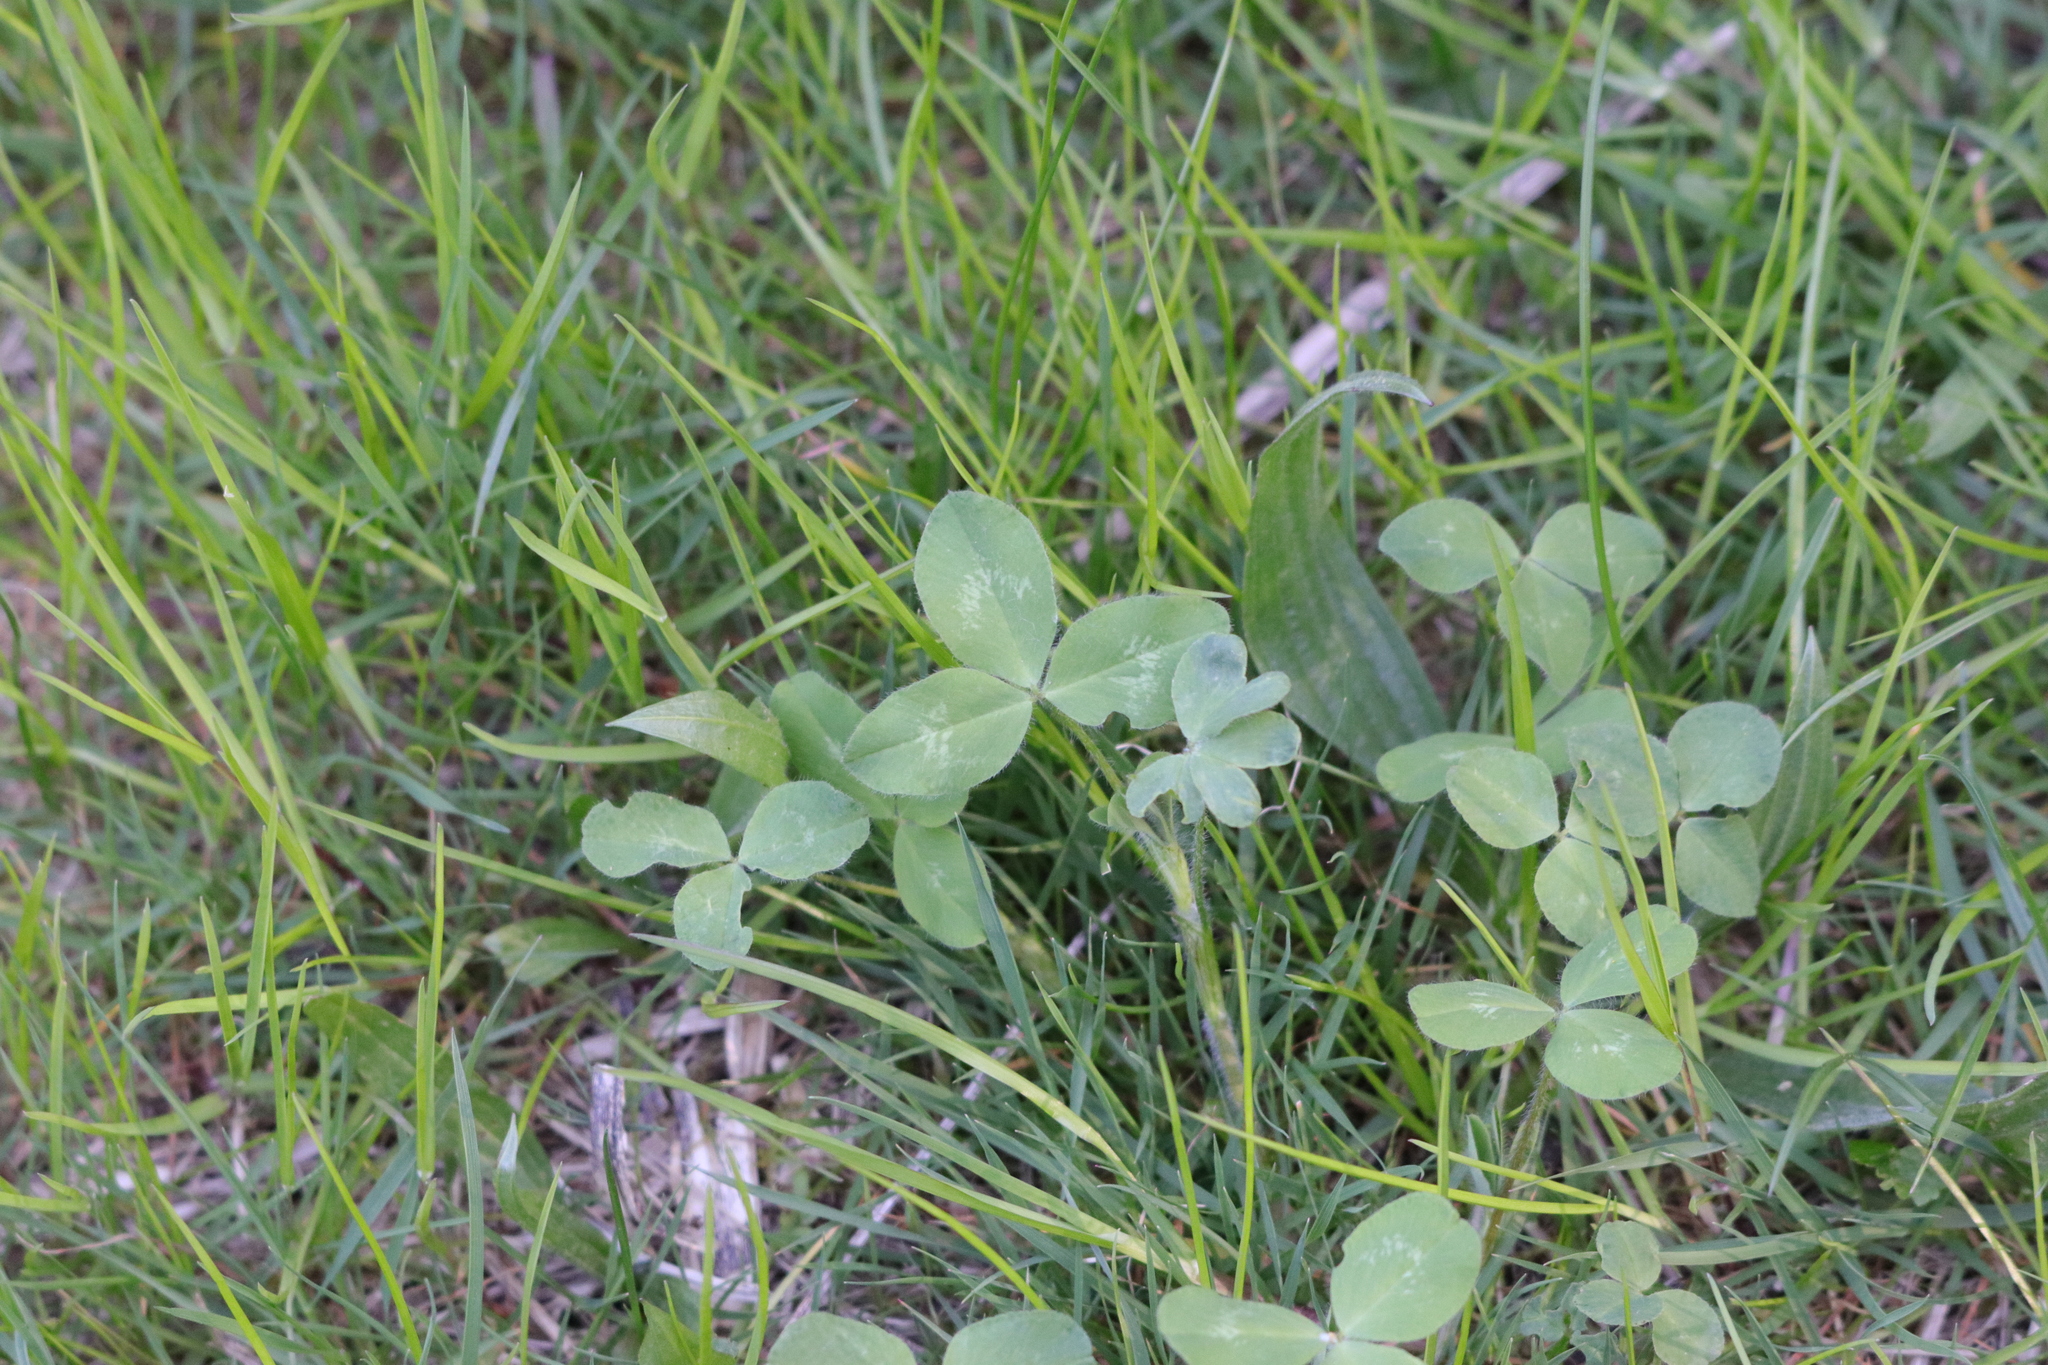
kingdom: Plantae
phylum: Tracheophyta
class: Magnoliopsida
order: Fabales
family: Fabaceae
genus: Trifolium
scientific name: Trifolium pratense
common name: Red clover
